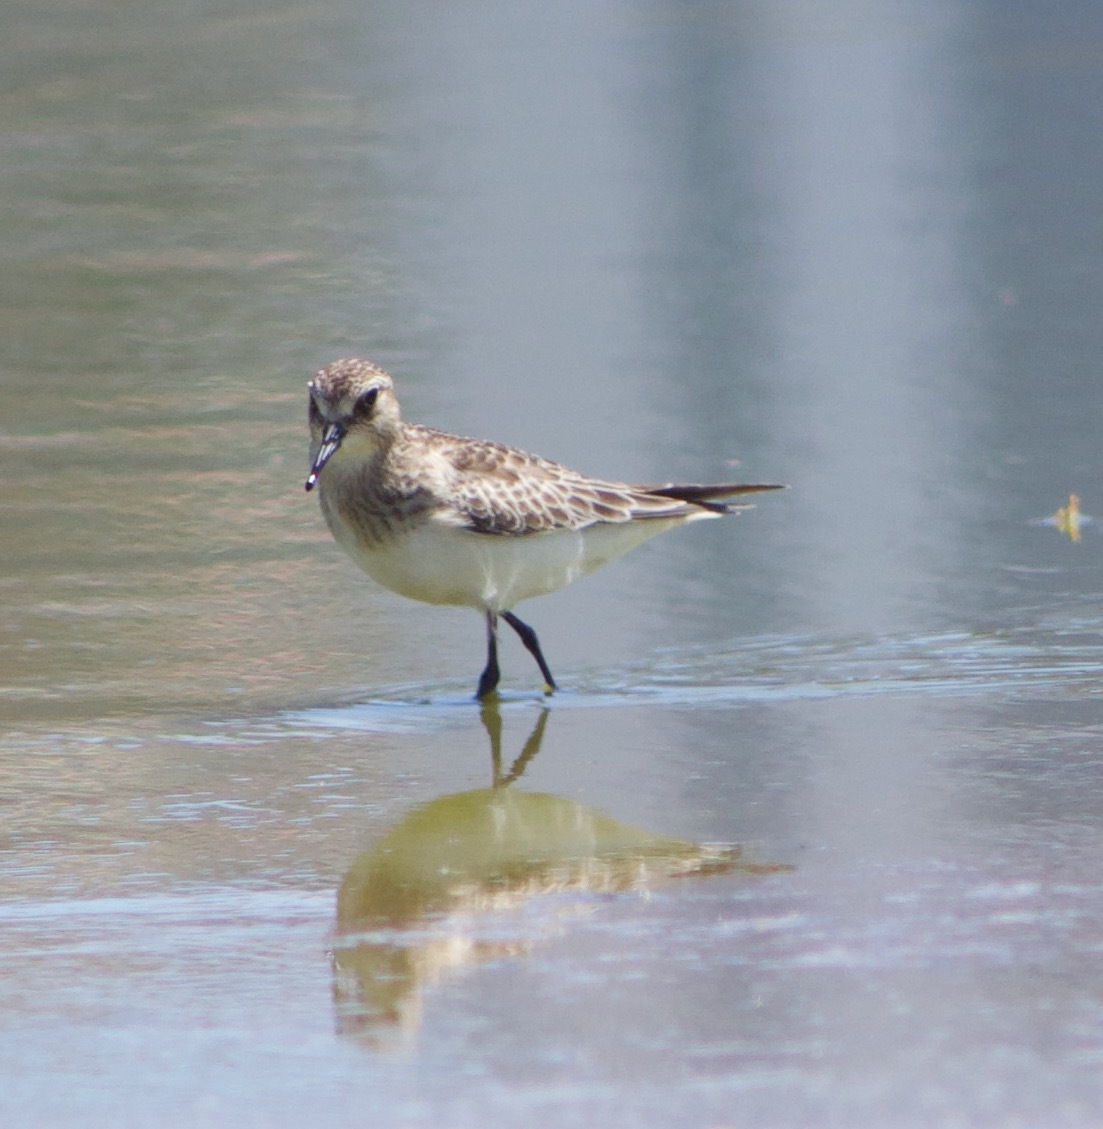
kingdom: Animalia
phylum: Chordata
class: Aves
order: Charadriiformes
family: Scolopacidae
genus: Calidris
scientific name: Calidris bairdii
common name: Baird's sandpiper
